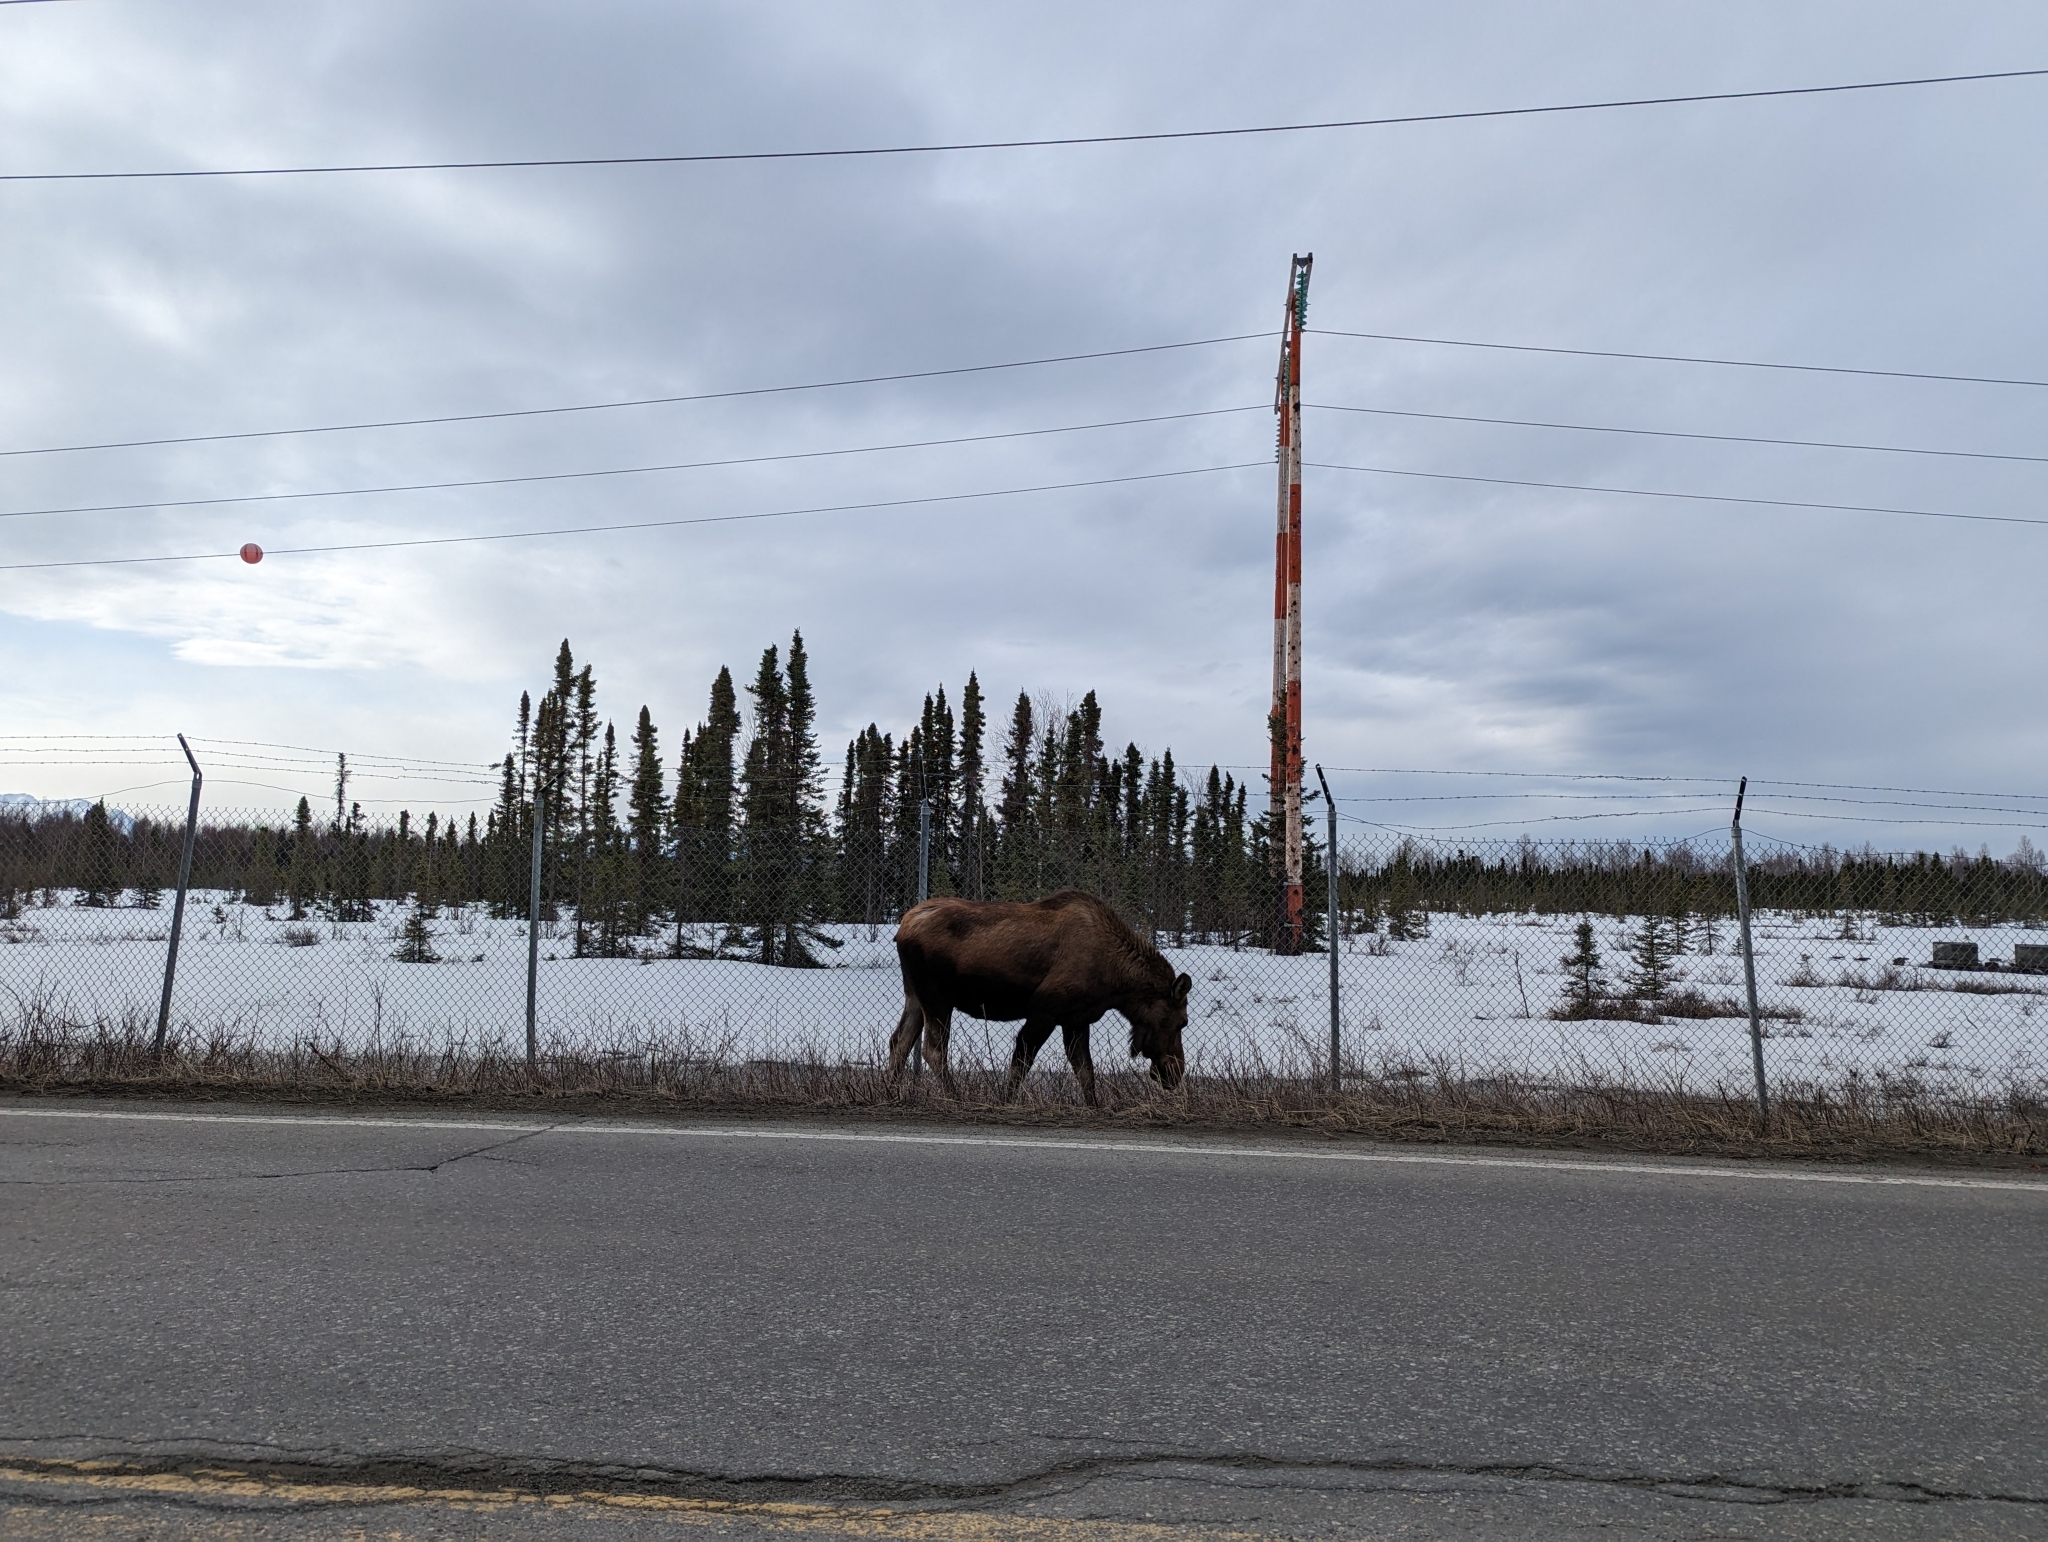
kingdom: Animalia
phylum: Chordata
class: Mammalia
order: Artiodactyla
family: Cervidae
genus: Alces
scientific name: Alces alces
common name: Moose
